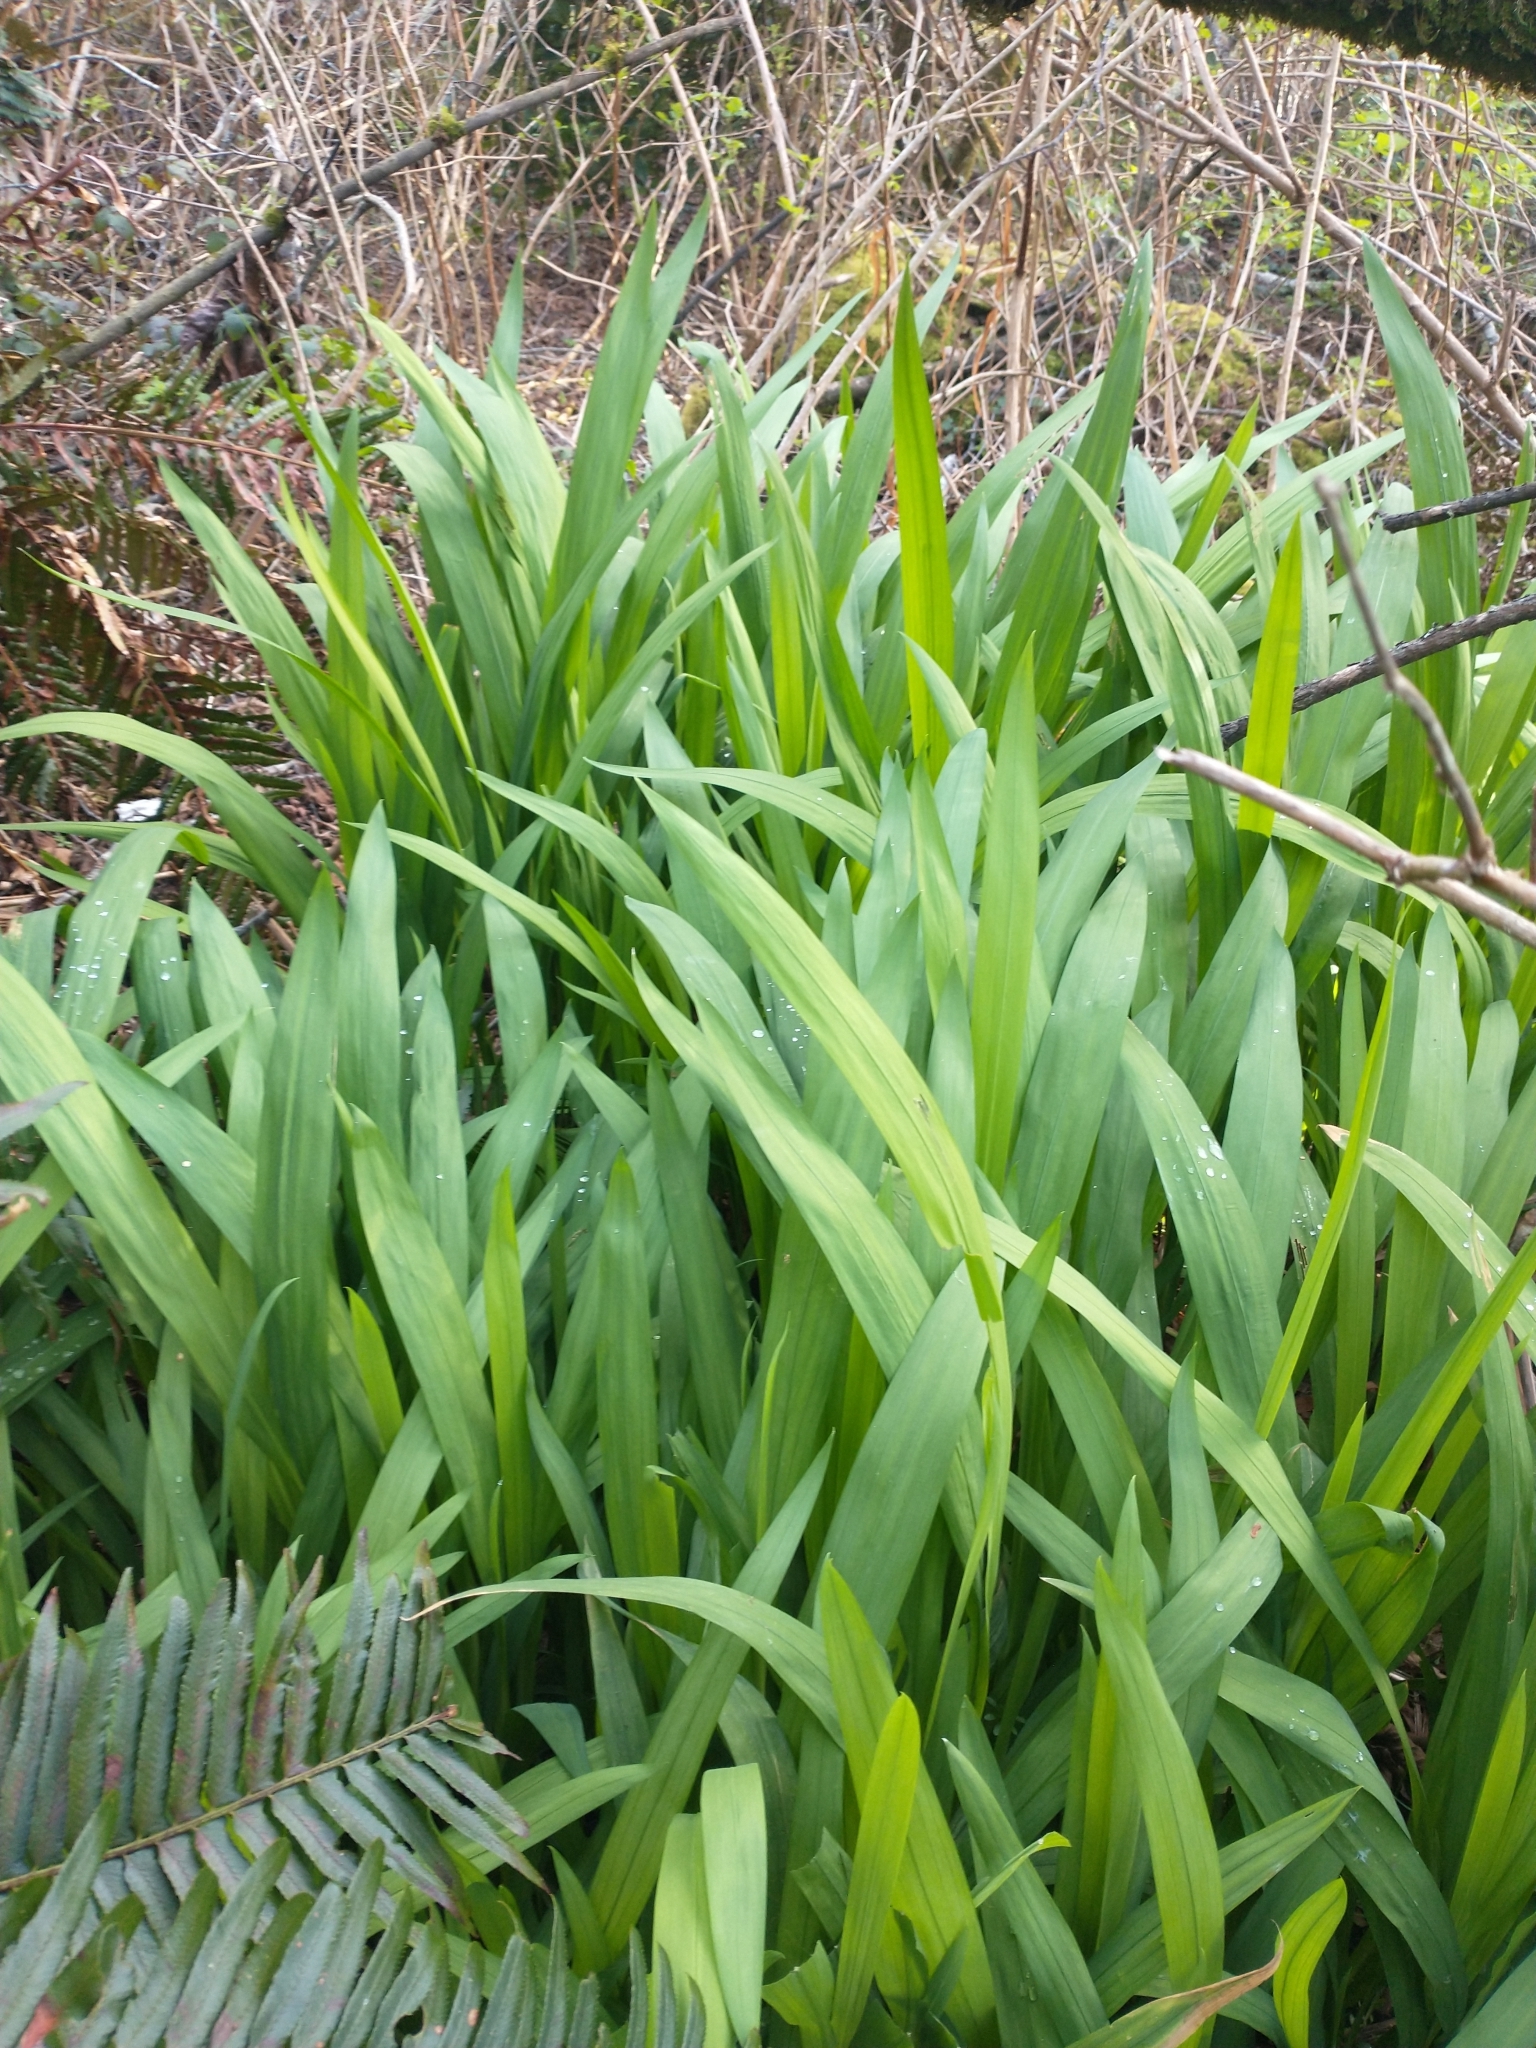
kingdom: Plantae
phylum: Tracheophyta
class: Liliopsida
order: Asparagales
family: Iridaceae
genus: Crocosmia
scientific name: Crocosmia crocosmiiflora
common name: Montbretia
